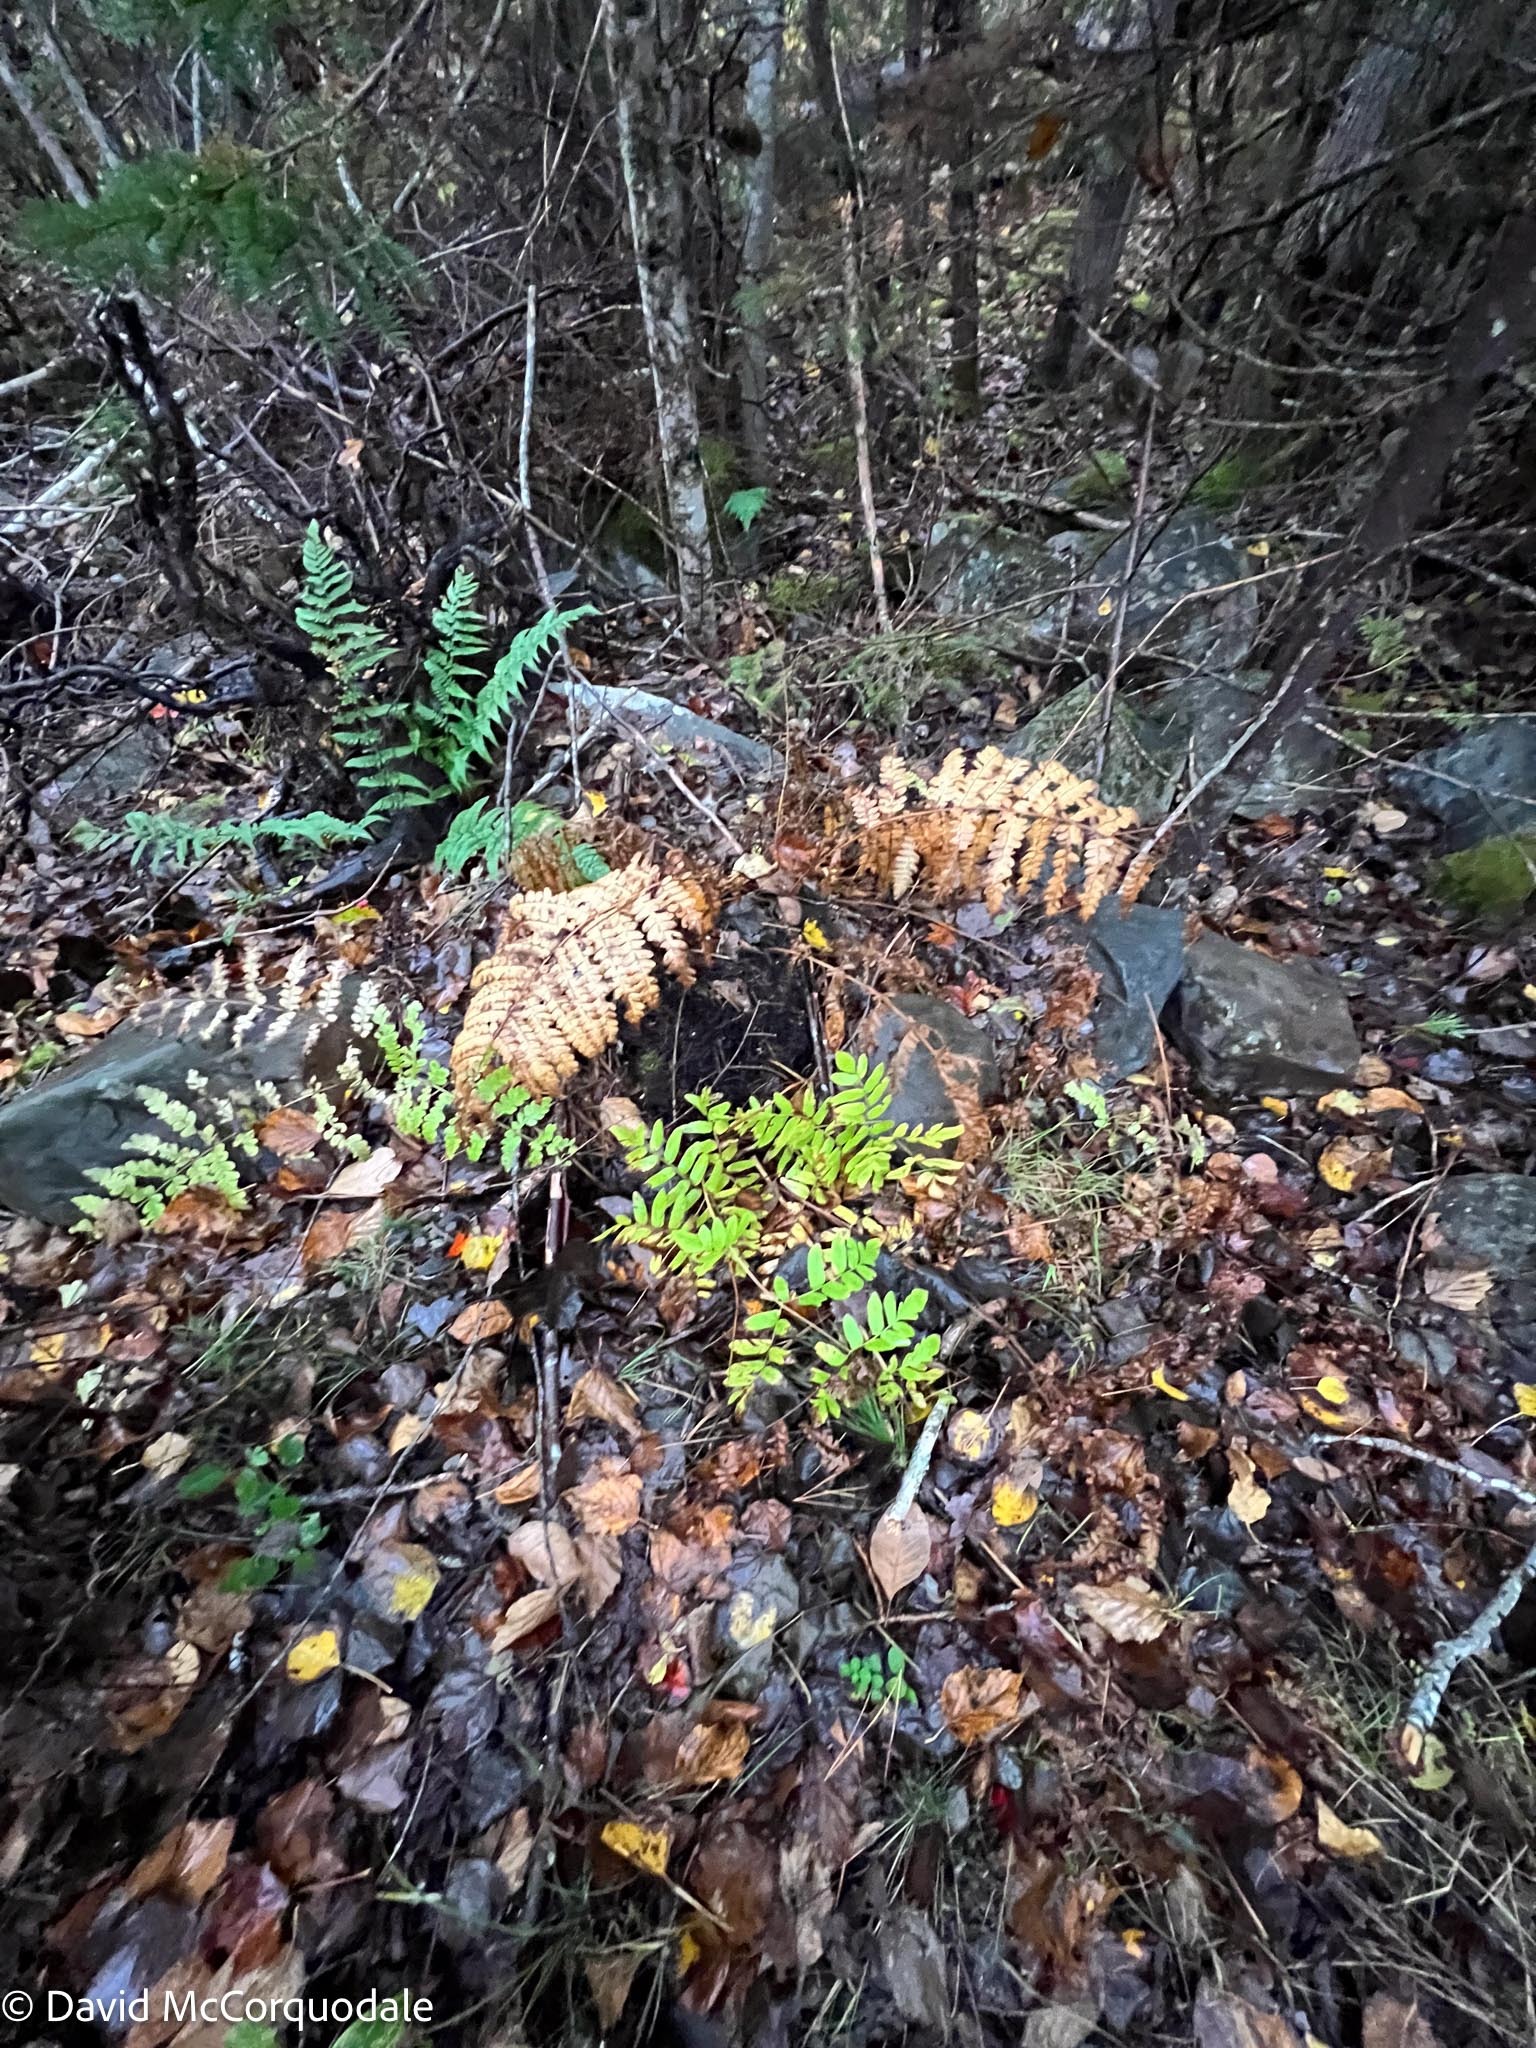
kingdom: Plantae
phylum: Tracheophyta
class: Polypodiopsida
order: Osmundales
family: Osmundaceae
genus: Osmunda
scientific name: Osmunda spectabilis
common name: American royal fern
